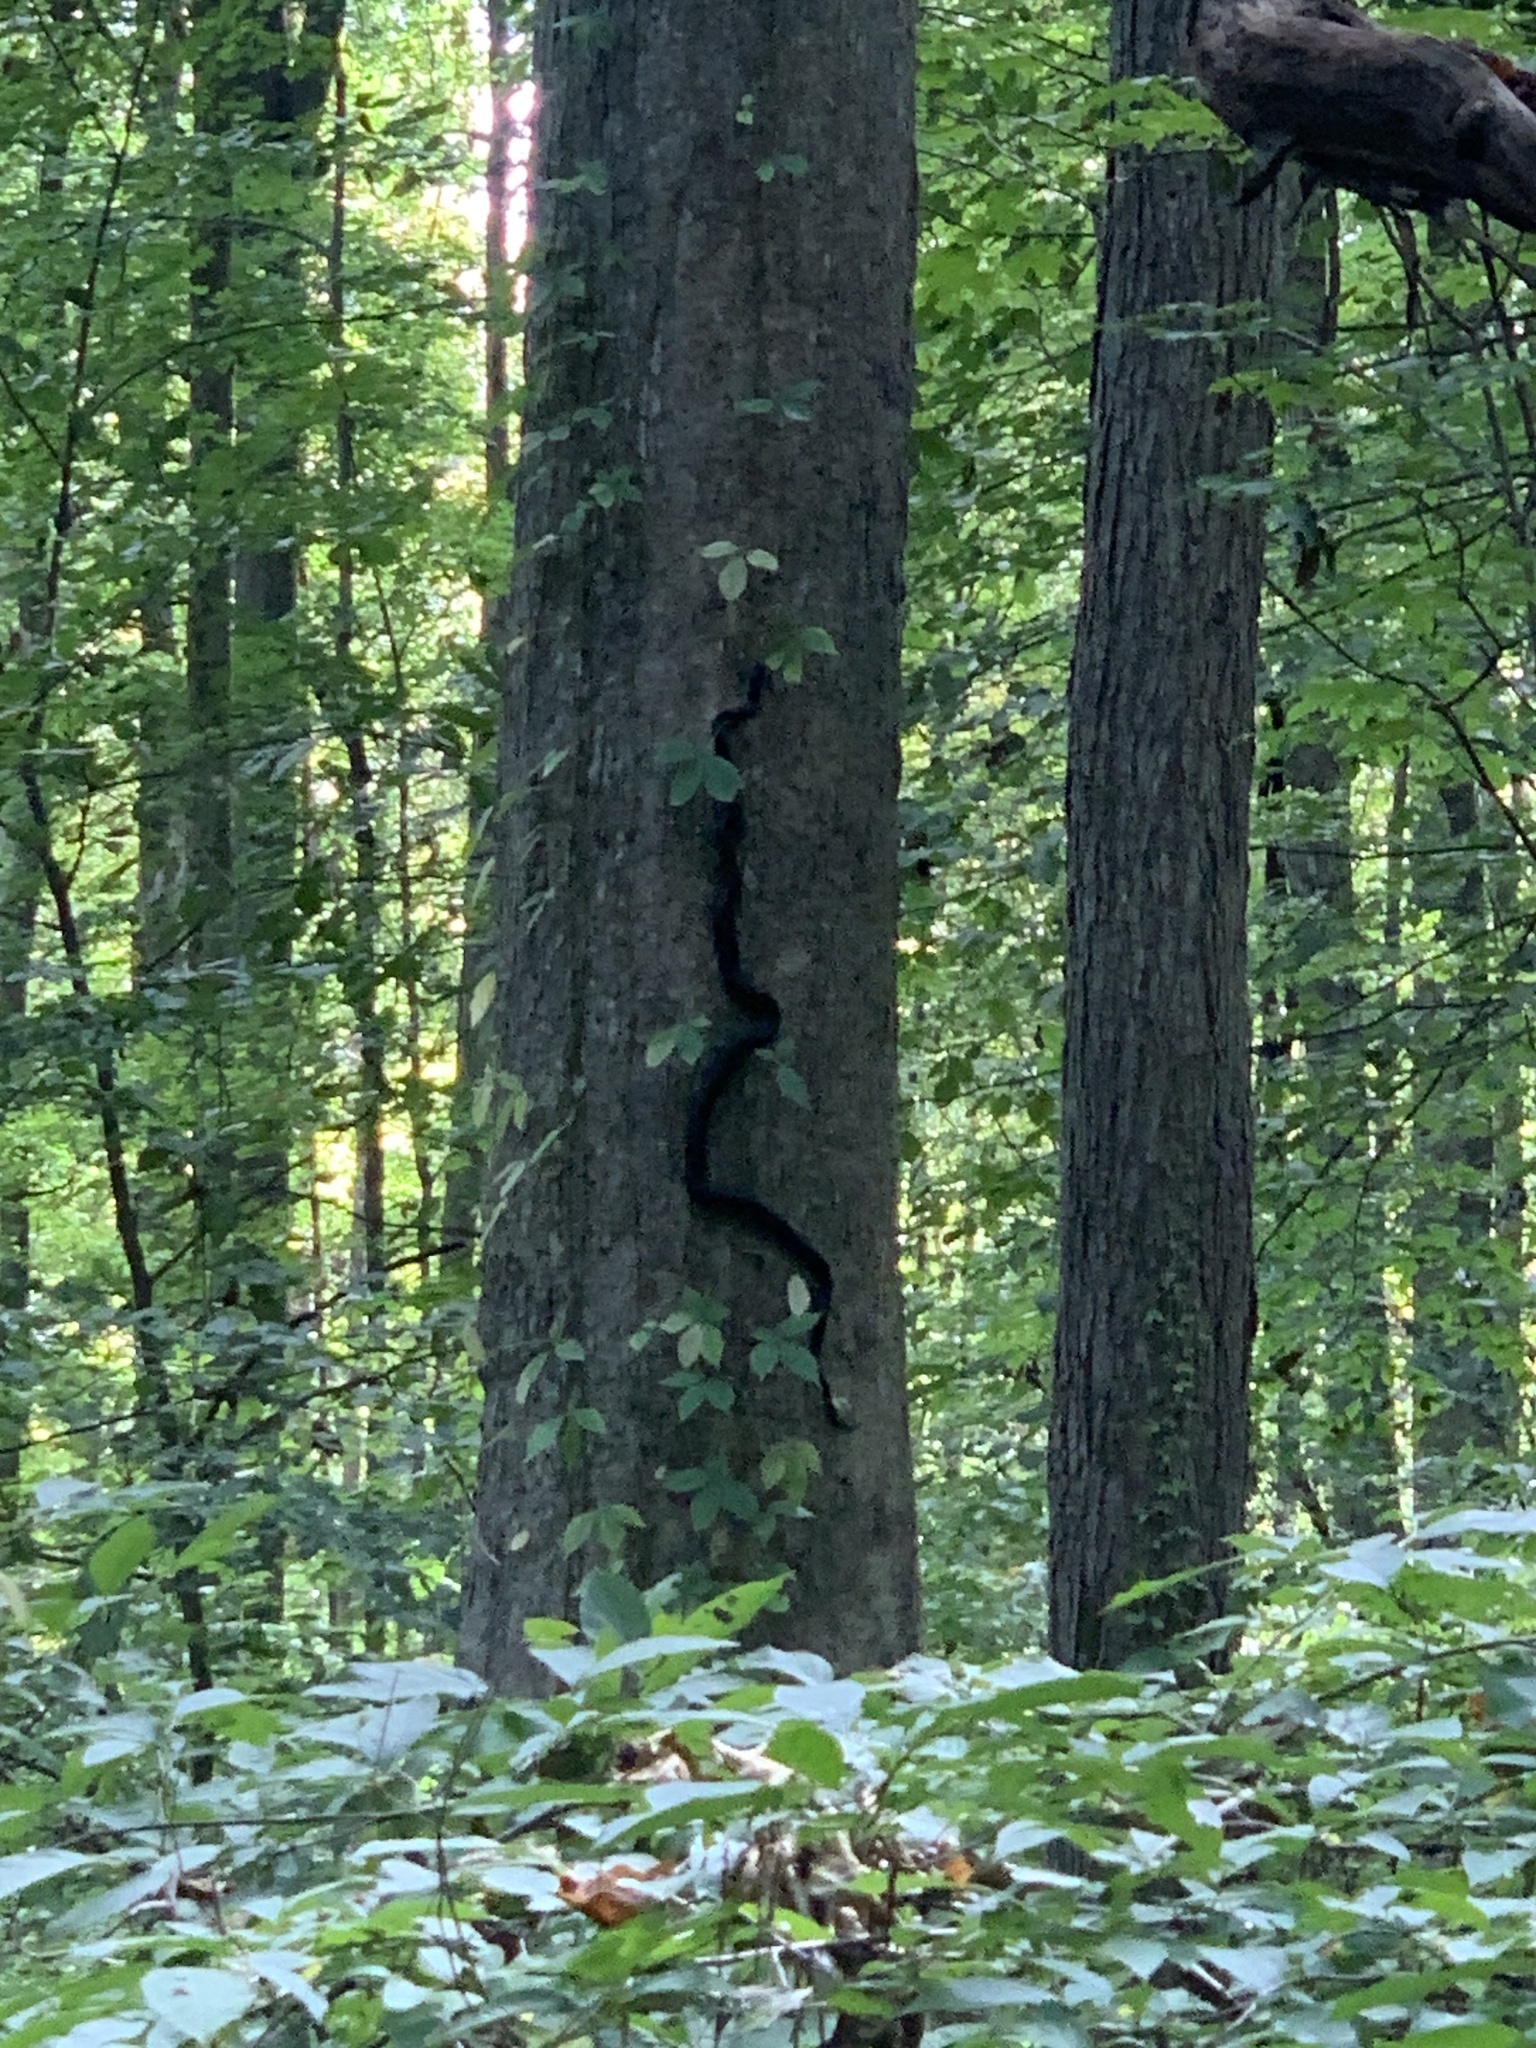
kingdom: Animalia
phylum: Chordata
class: Squamata
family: Colubridae
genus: Pantherophis
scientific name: Pantherophis spiloides
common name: Gray rat snake
